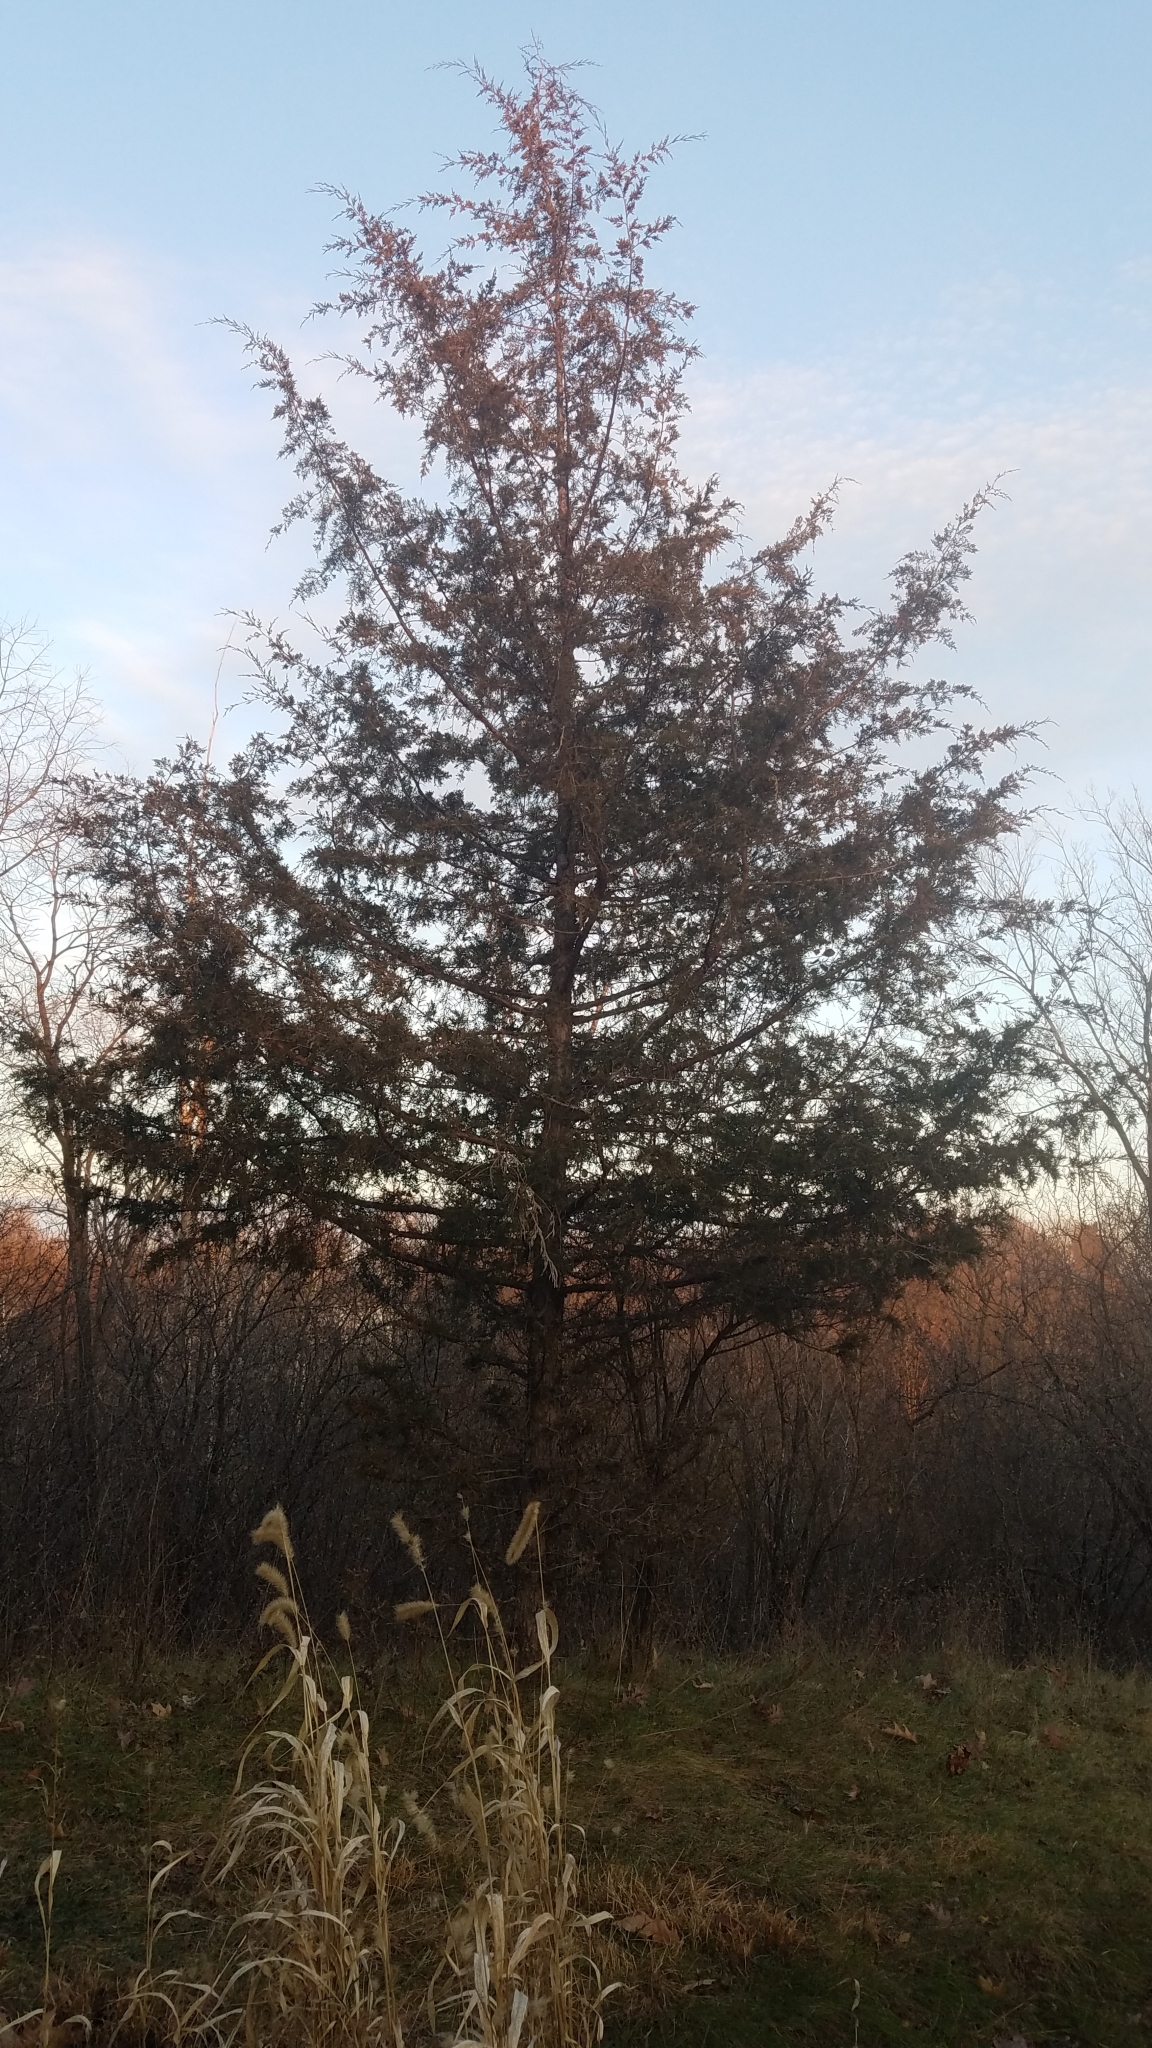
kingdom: Plantae
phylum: Tracheophyta
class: Pinopsida
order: Pinales
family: Cupressaceae
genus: Juniperus
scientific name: Juniperus virginiana
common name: Red juniper
